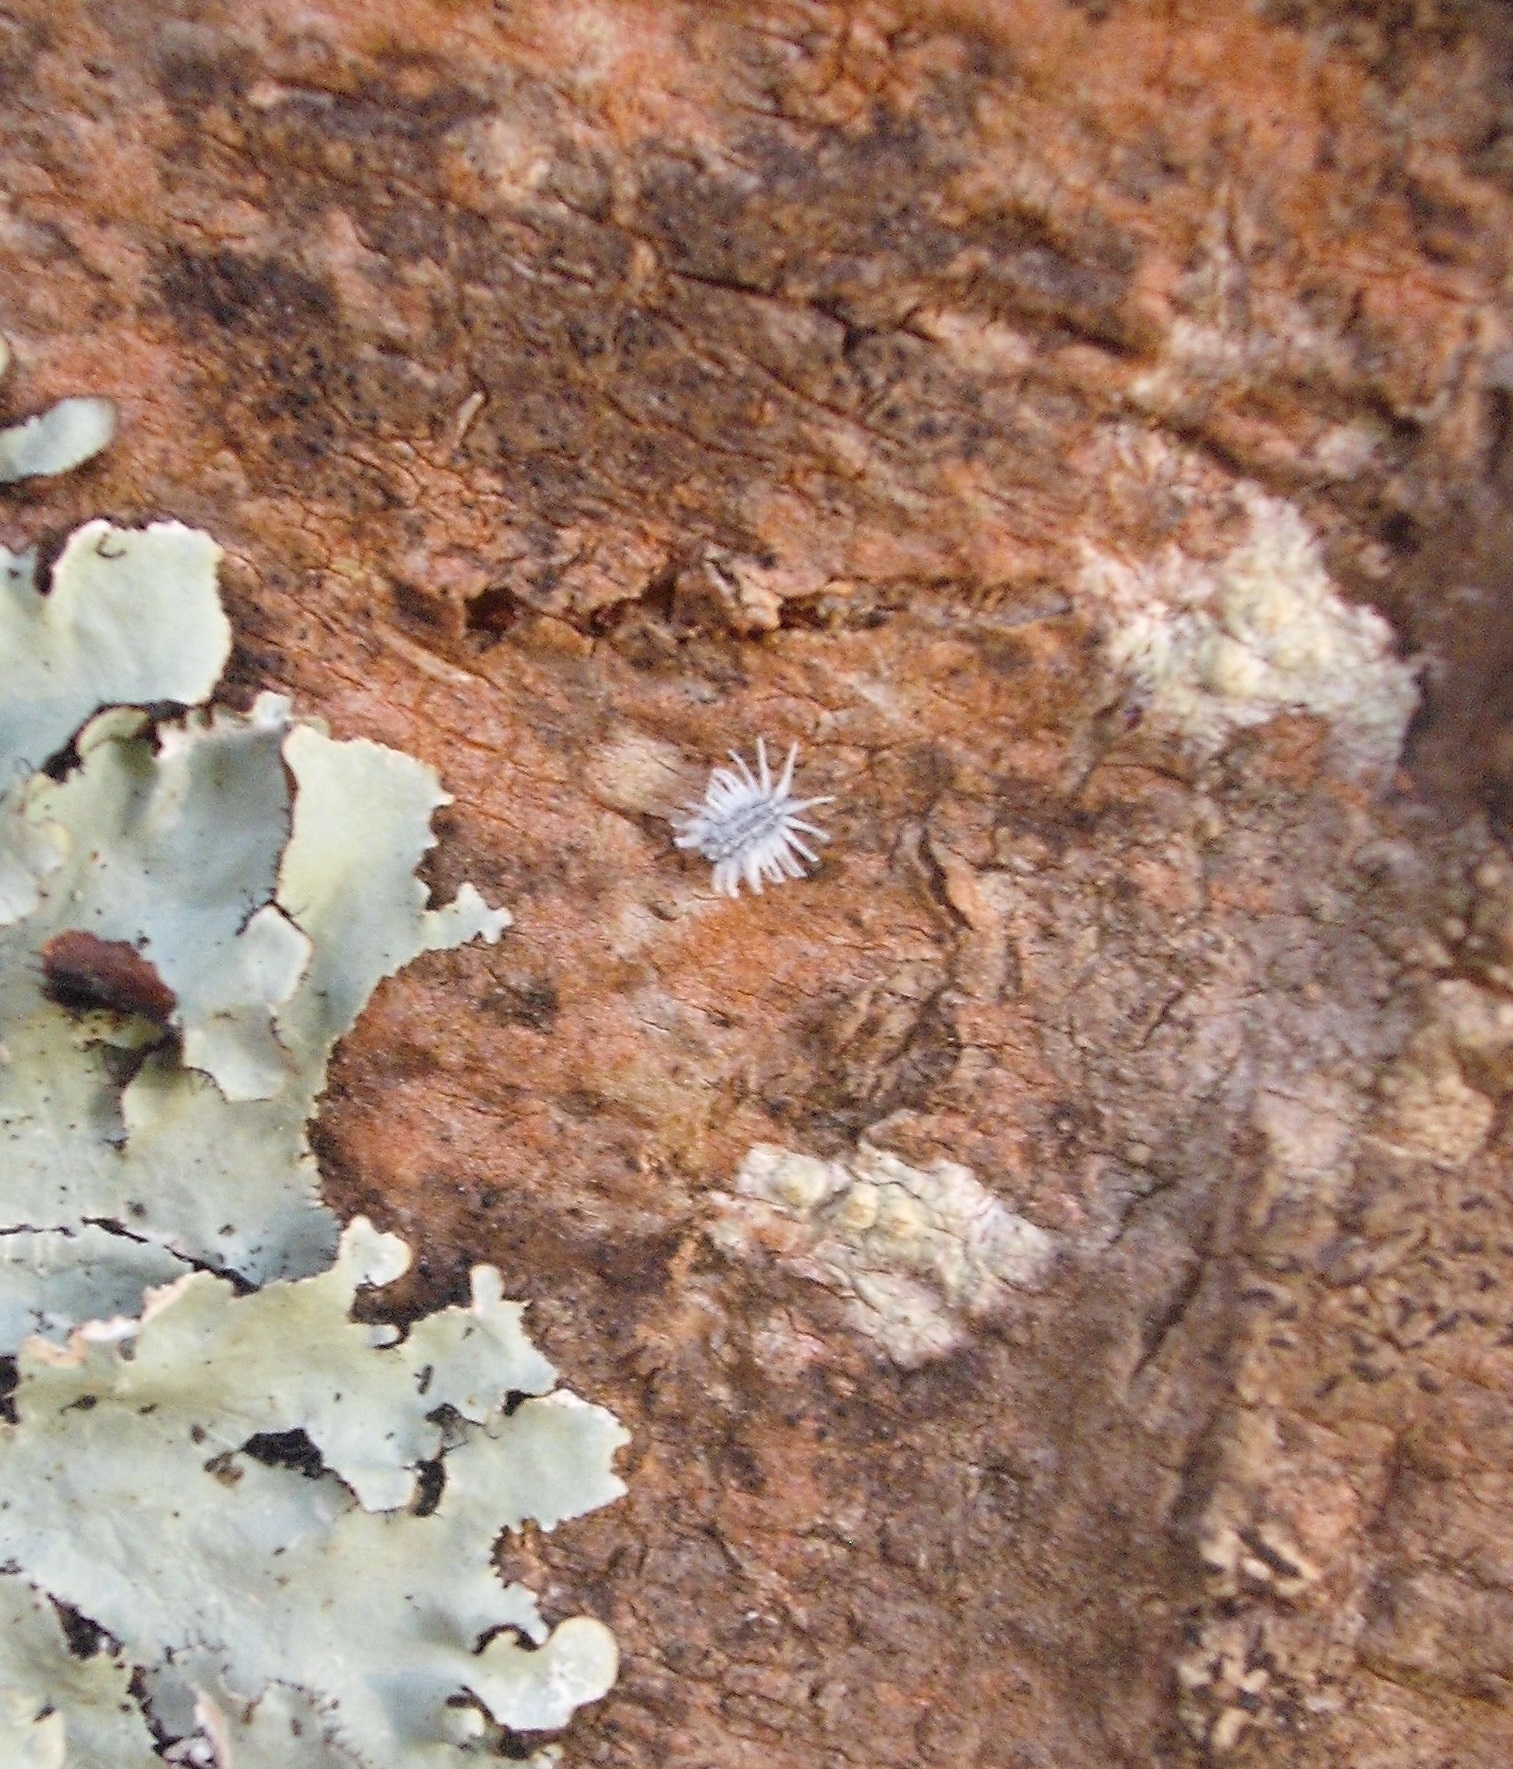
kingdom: Animalia
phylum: Arthropoda
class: Insecta
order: Coleoptera
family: Coccinellidae
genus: Telsimia
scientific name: Telsimia
